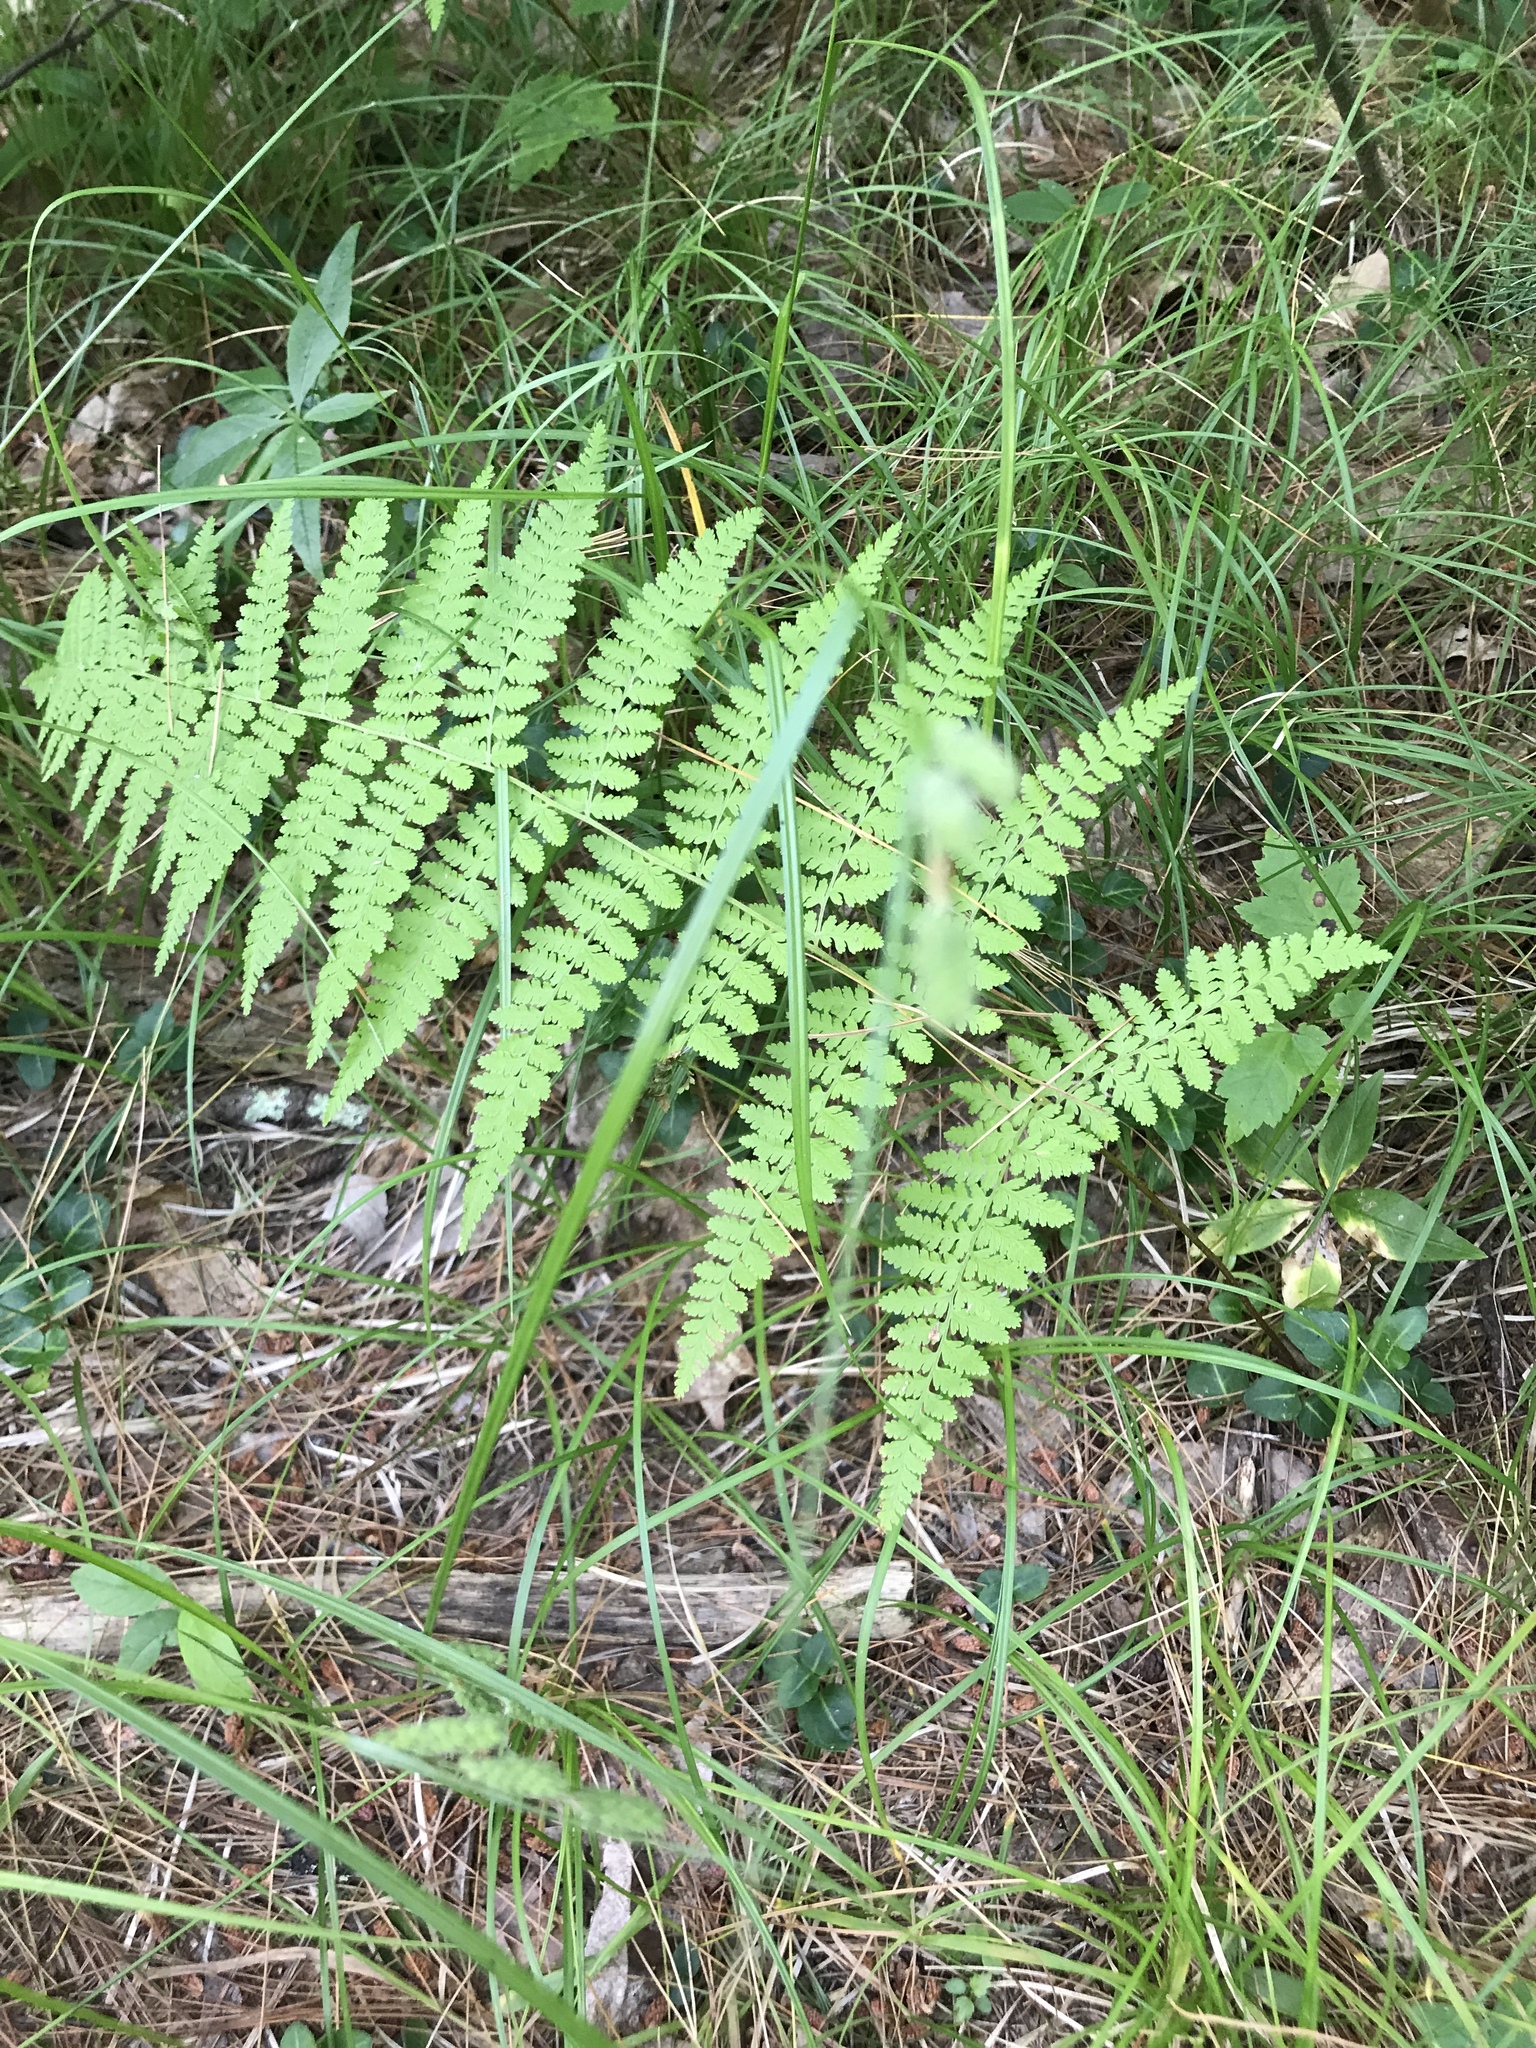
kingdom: Plantae
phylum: Tracheophyta
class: Polypodiopsida
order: Polypodiales
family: Dennstaedtiaceae
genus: Sitobolium
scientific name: Sitobolium punctilobum
